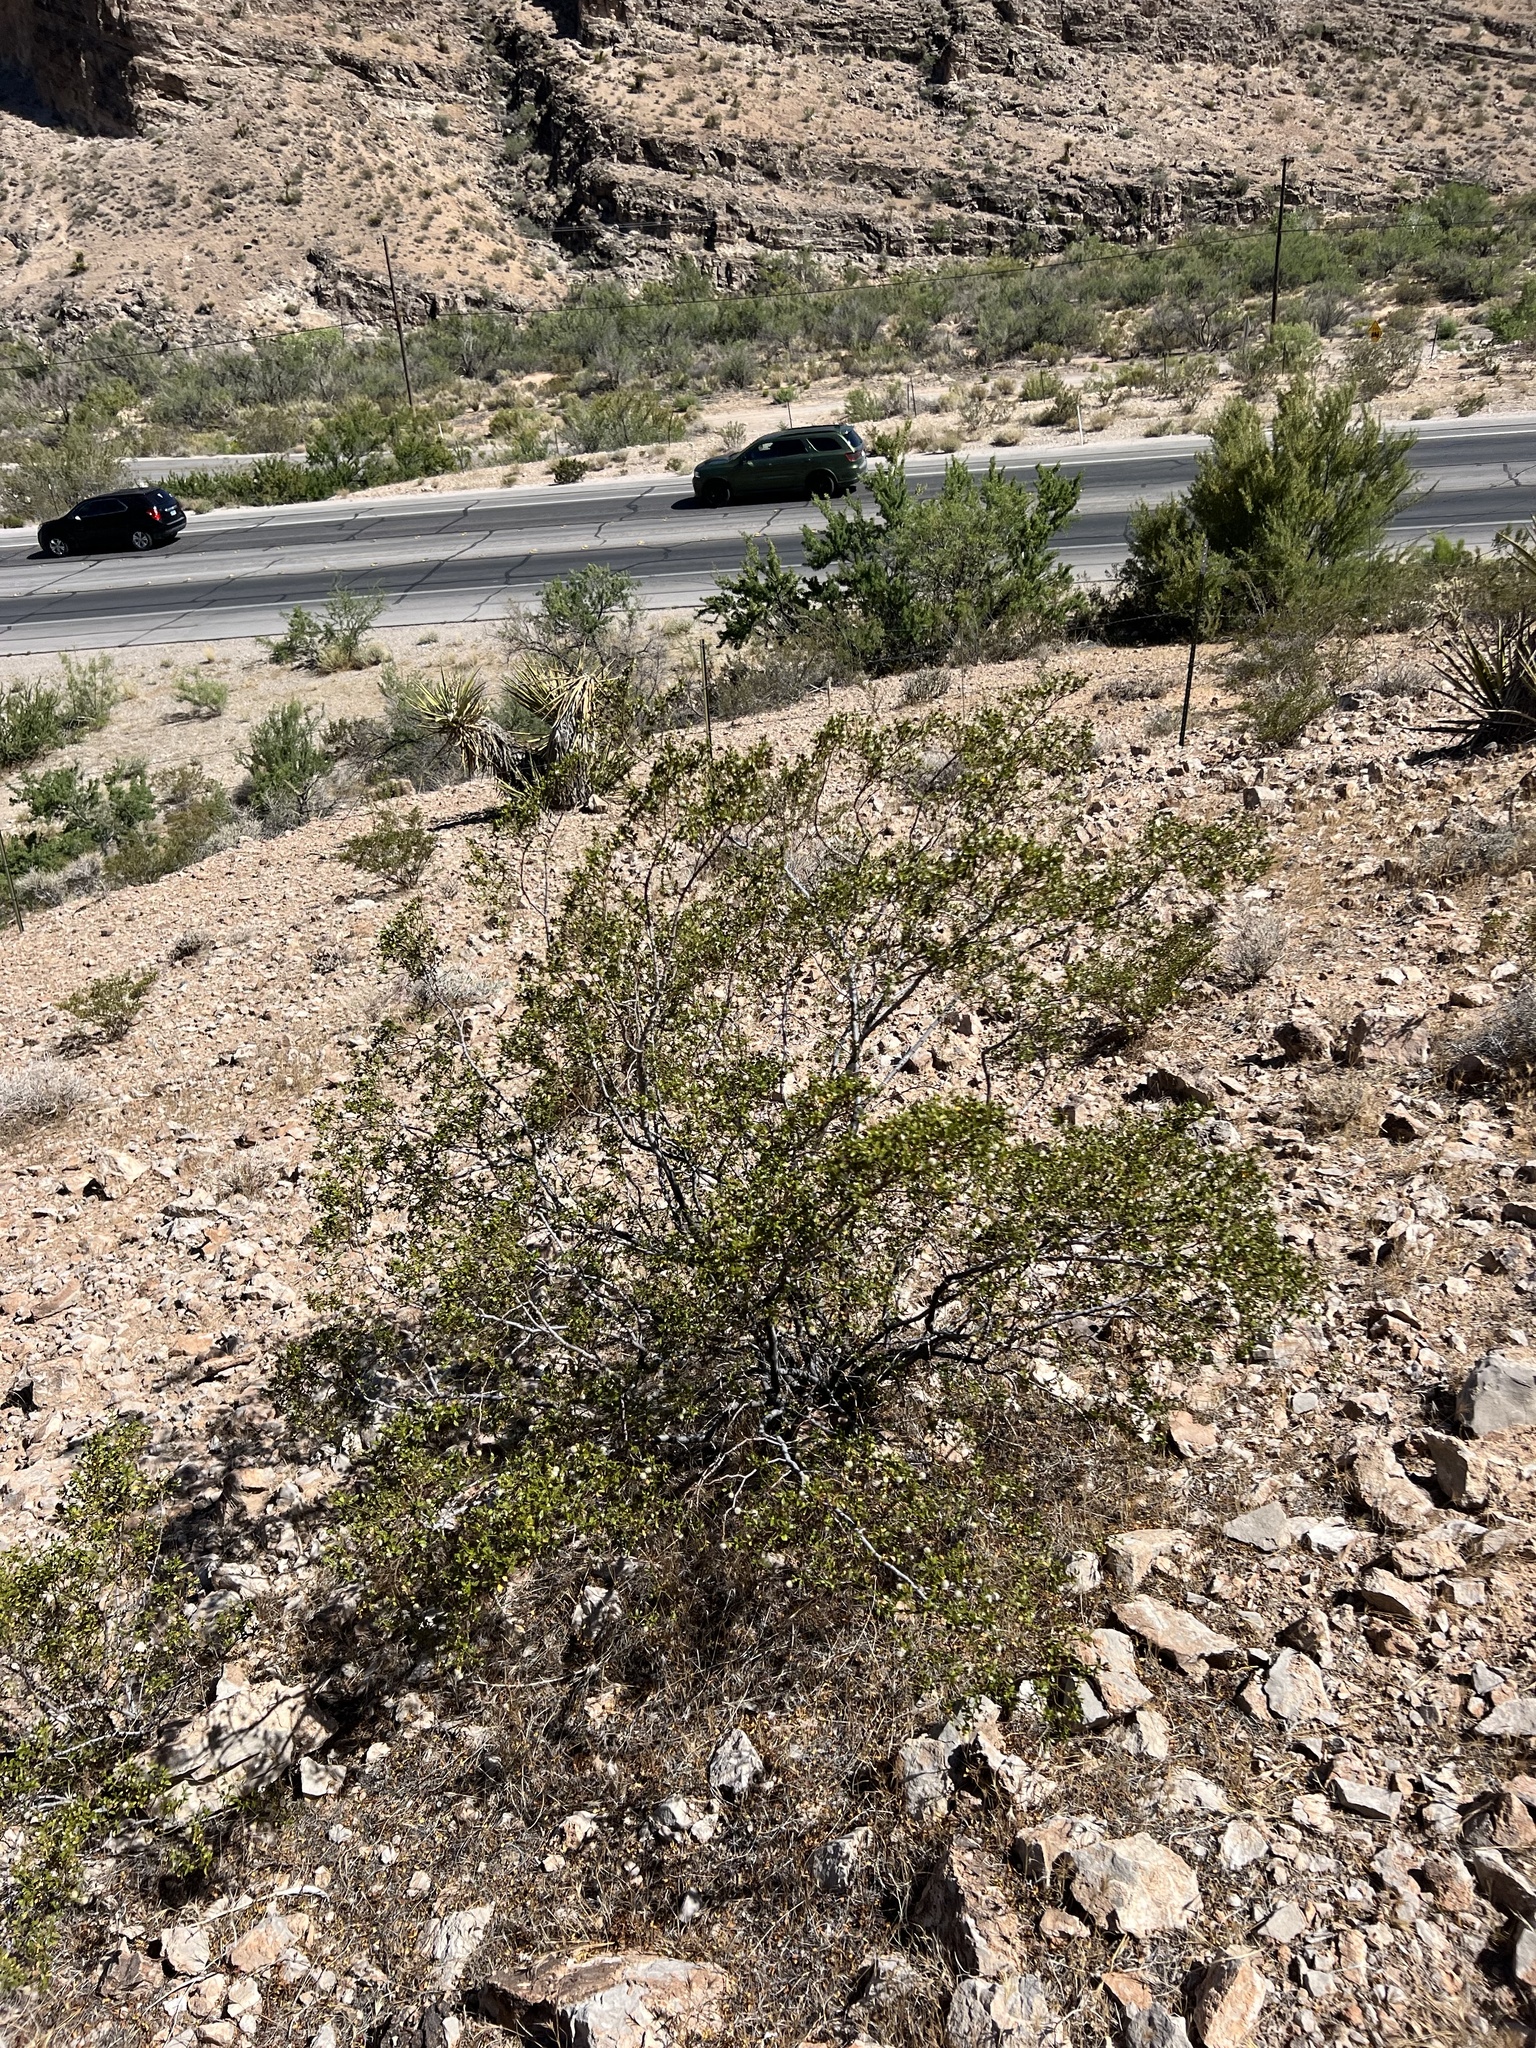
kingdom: Plantae
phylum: Tracheophyta
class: Magnoliopsida
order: Zygophyllales
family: Zygophyllaceae
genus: Larrea
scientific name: Larrea tridentata
